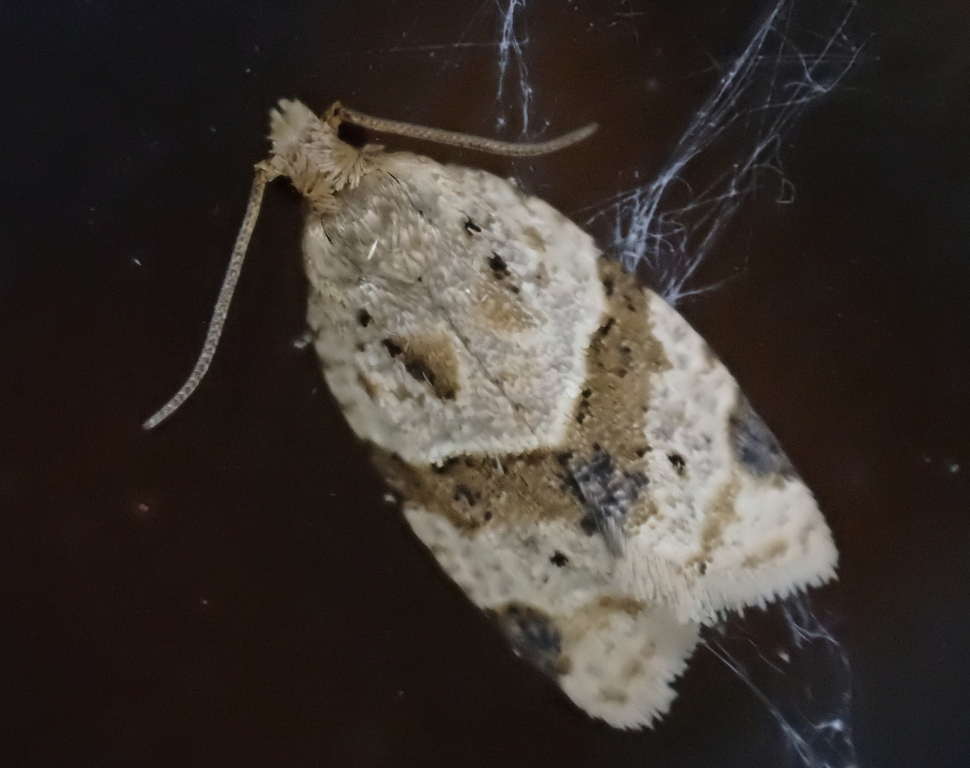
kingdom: Animalia
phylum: Arthropoda
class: Insecta
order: Lepidoptera
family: Tortricidae
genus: Clepsis
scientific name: Clepsis peritana
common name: Garden tortrix
